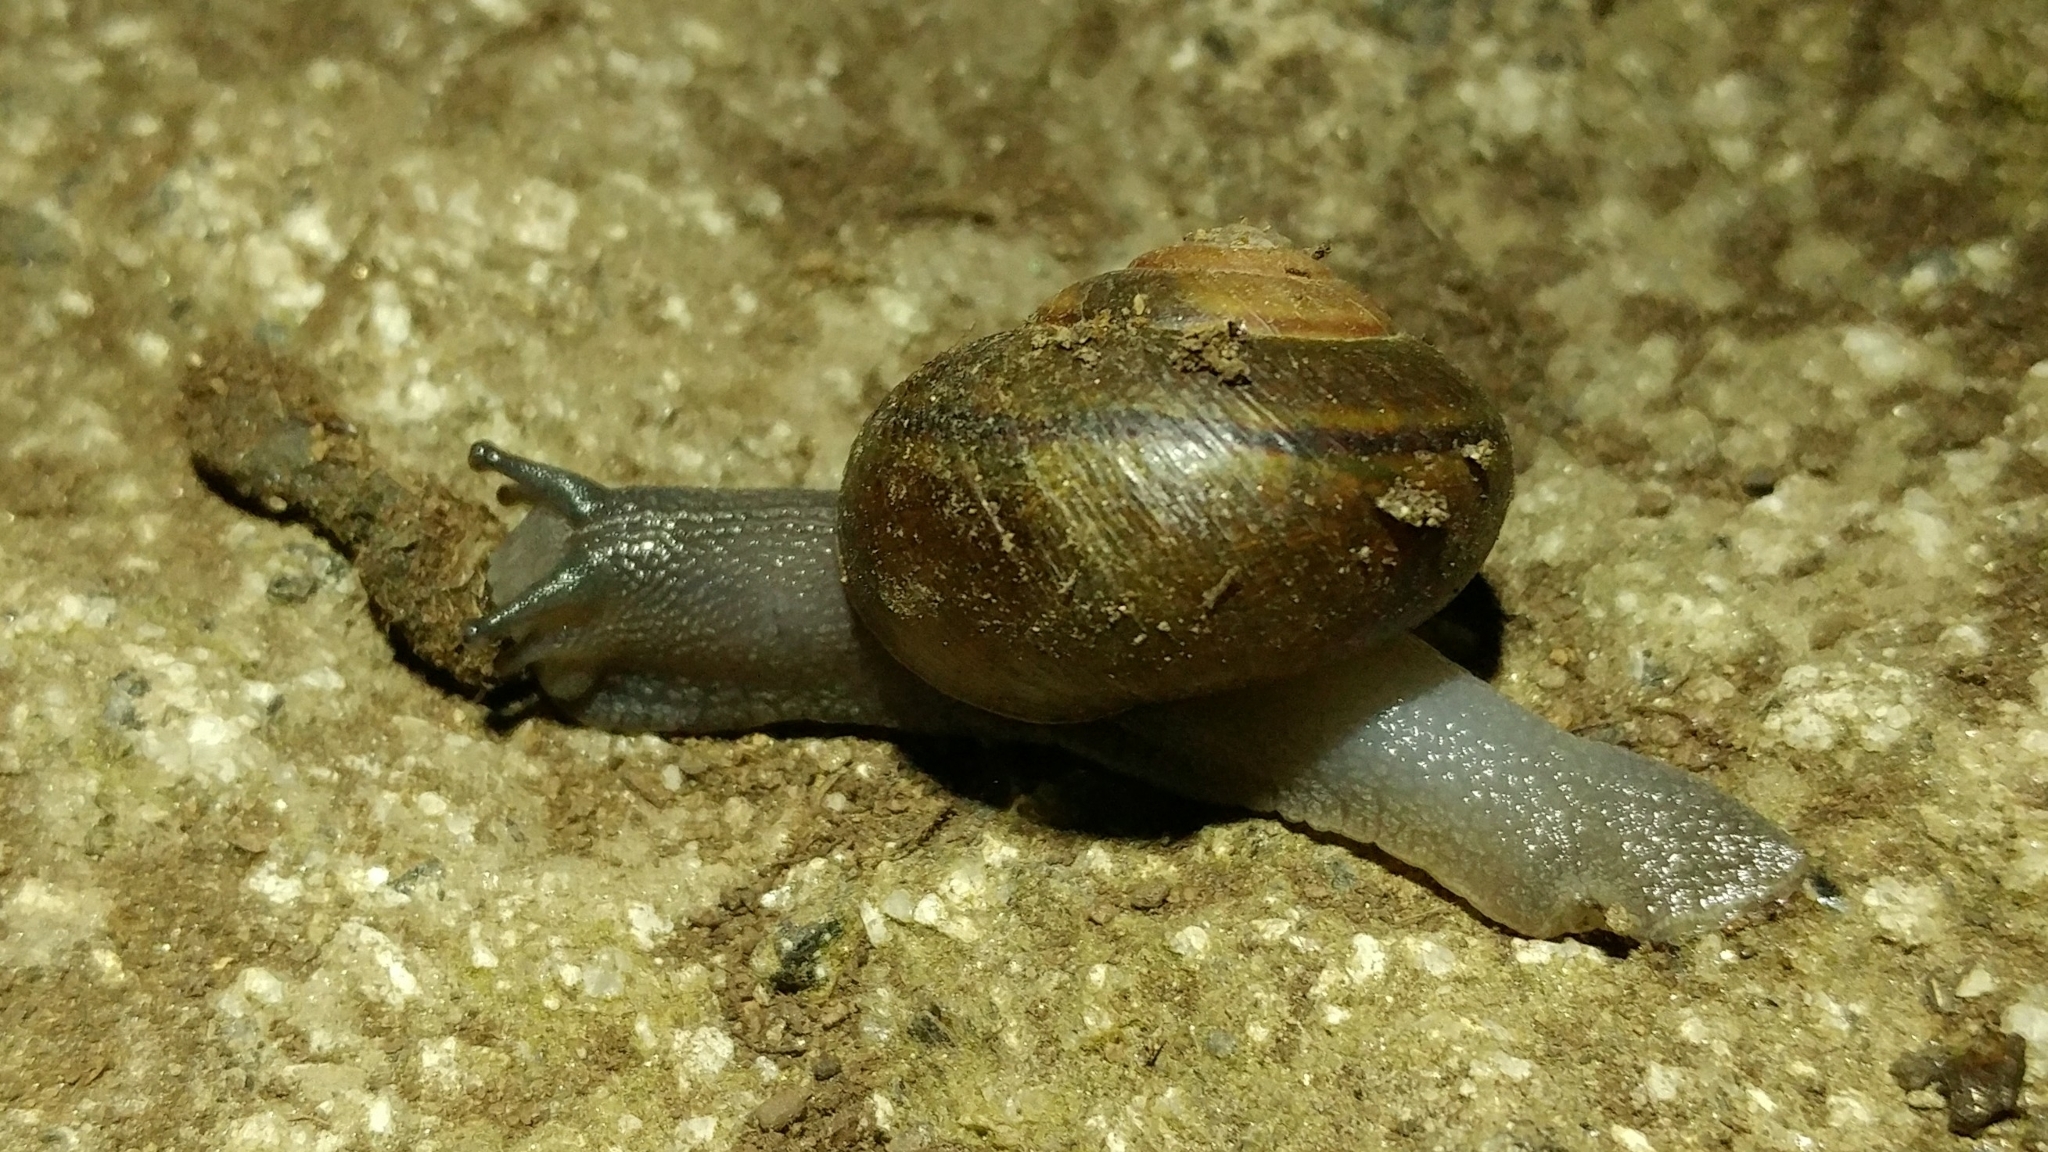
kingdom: Animalia
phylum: Mollusca
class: Gastropoda
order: Stylommatophora
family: Xanthonychidae
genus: Helminthoglypta
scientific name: Helminthoglypta tudiculata
